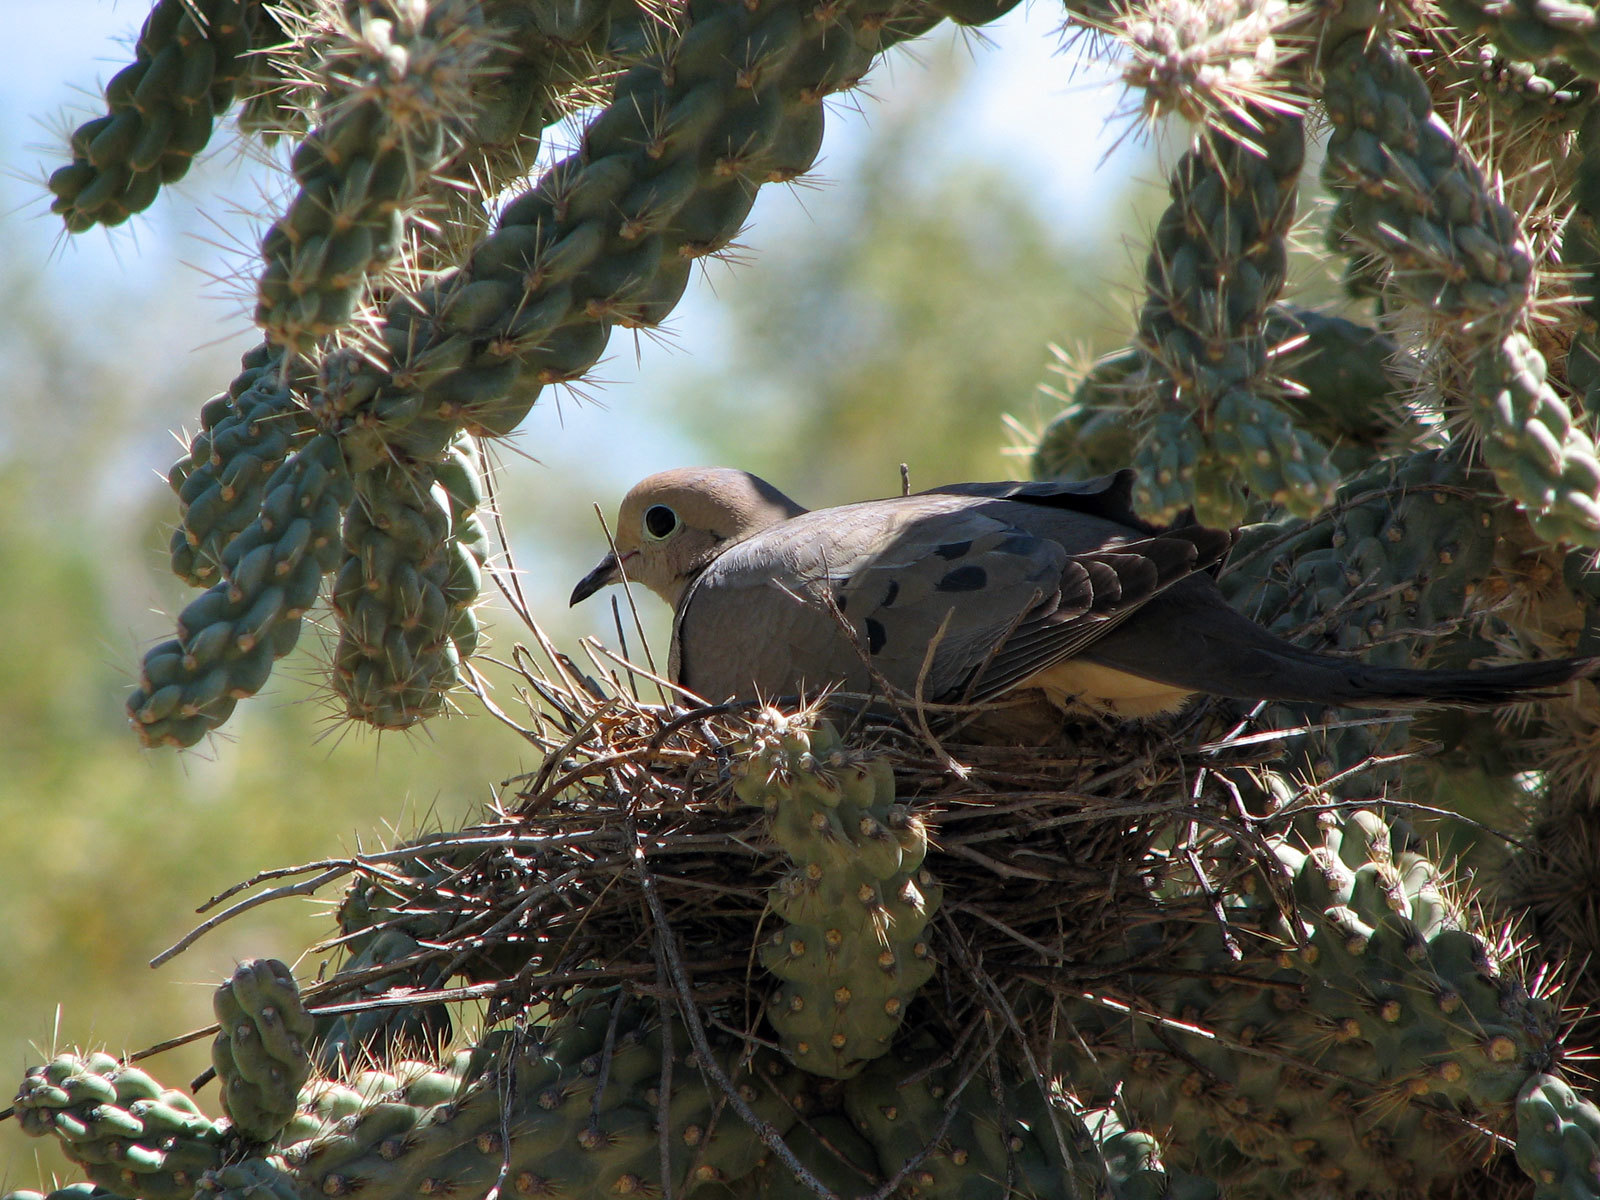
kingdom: Animalia
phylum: Chordata
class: Aves
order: Columbiformes
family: Columbidae
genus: Zenaida
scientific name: Zenaida macroura
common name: Mourning dove
